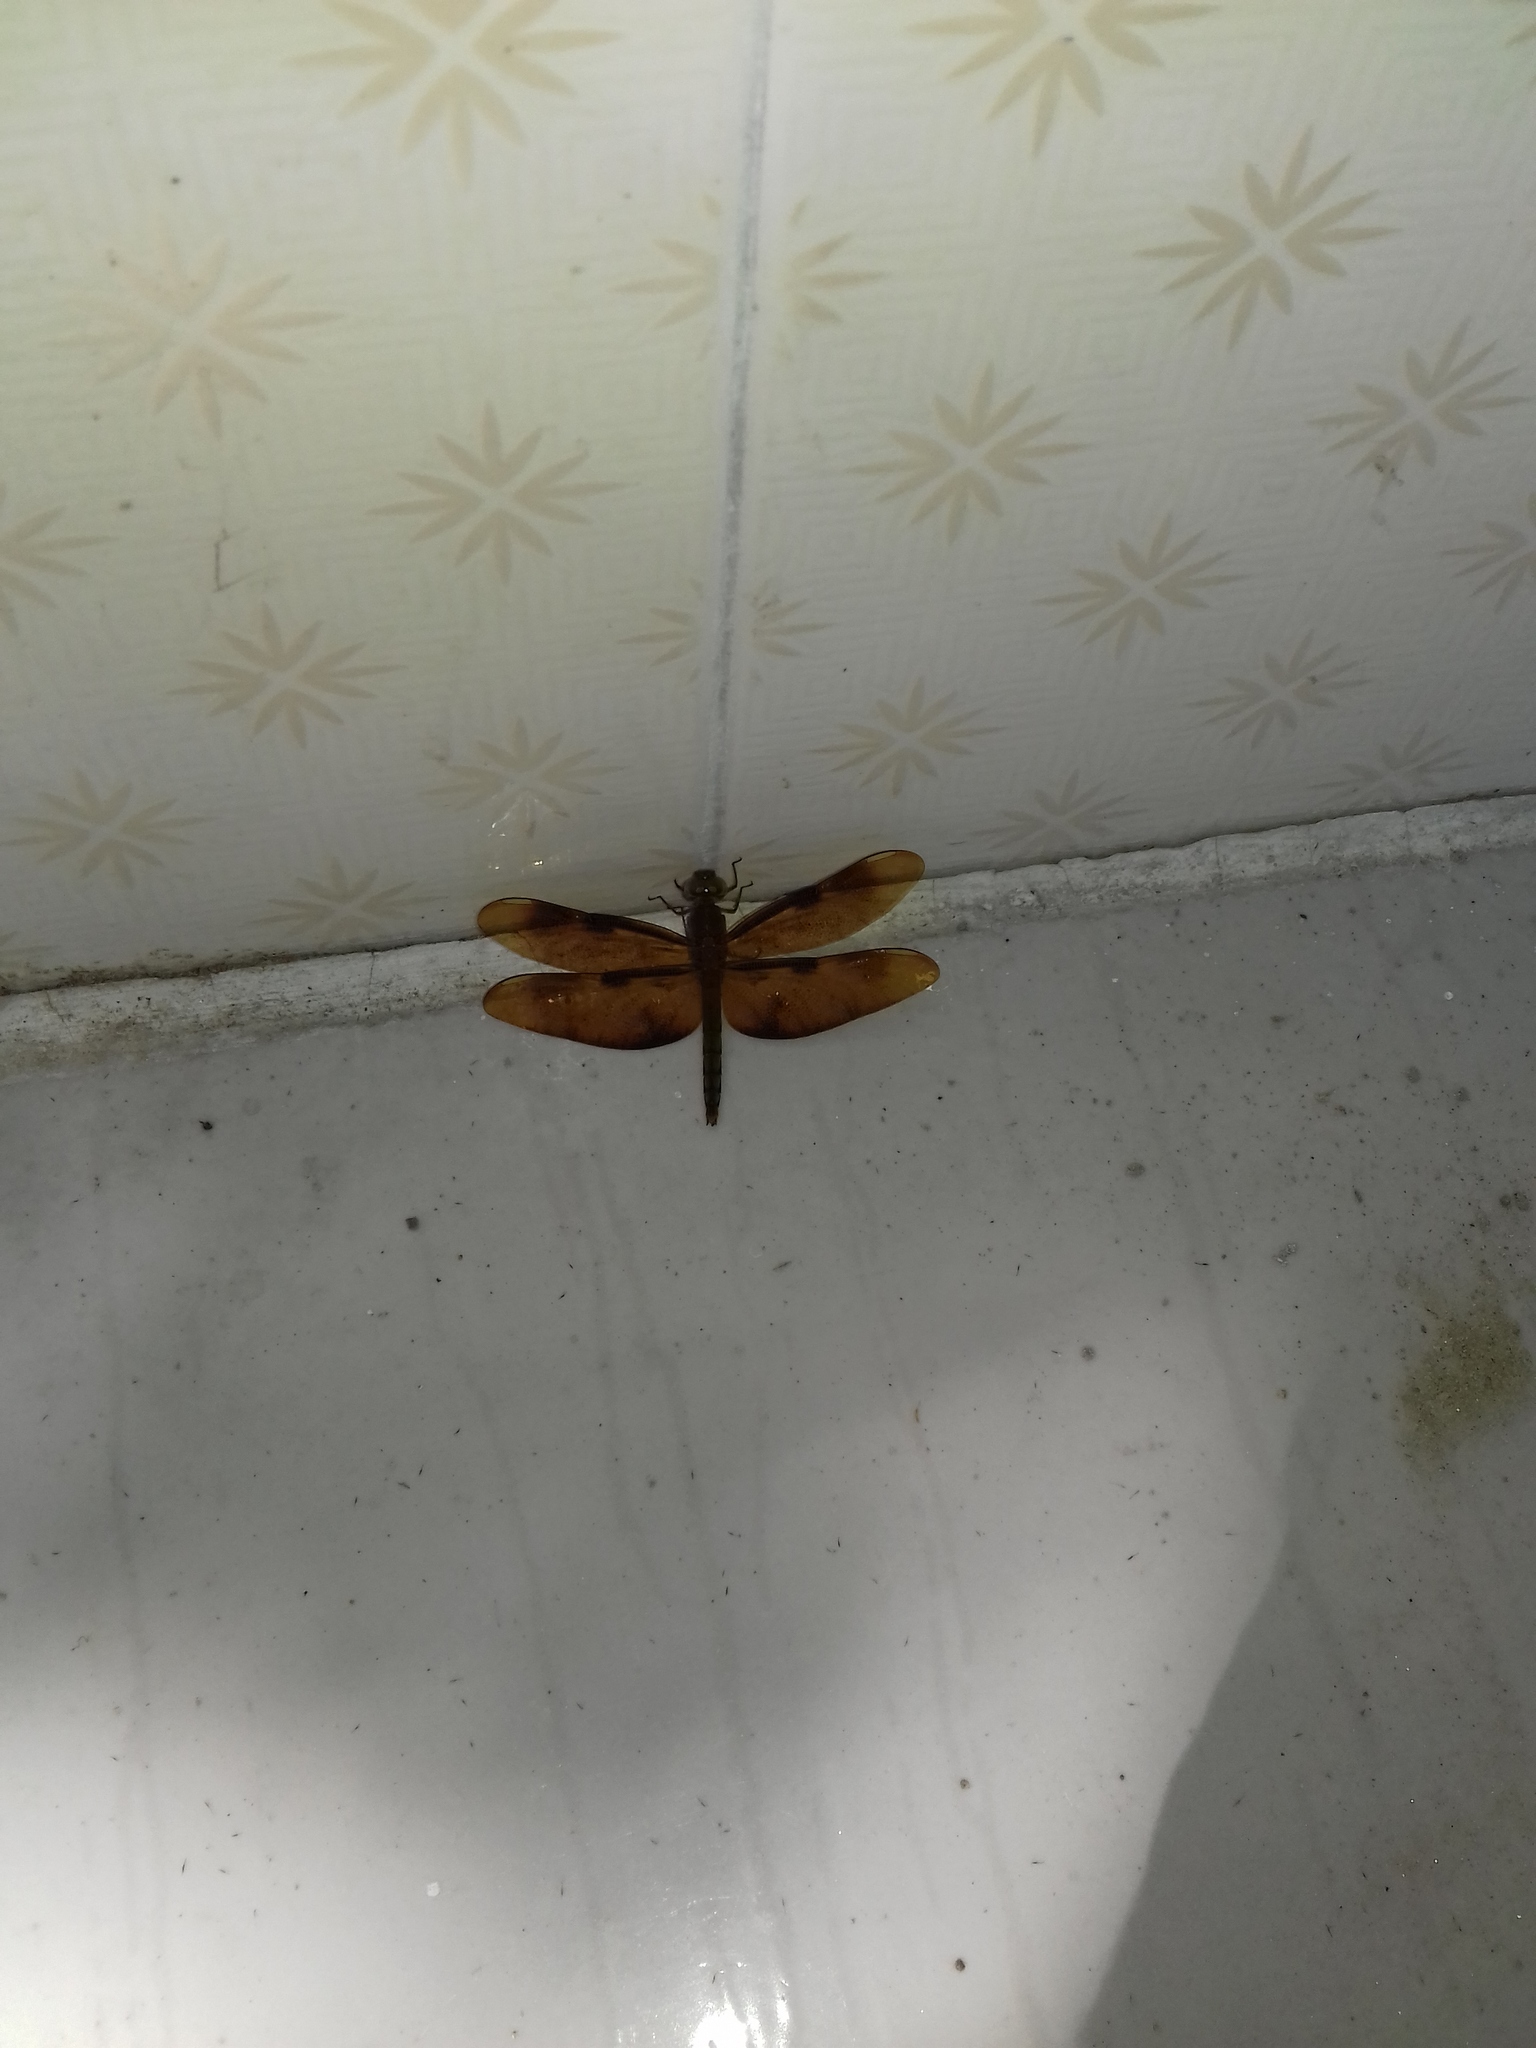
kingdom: Animalia
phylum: Arthropoda
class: Insecta
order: Odonata
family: Libellulidae
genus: Neurothemis
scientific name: Neurothemis fulvia
